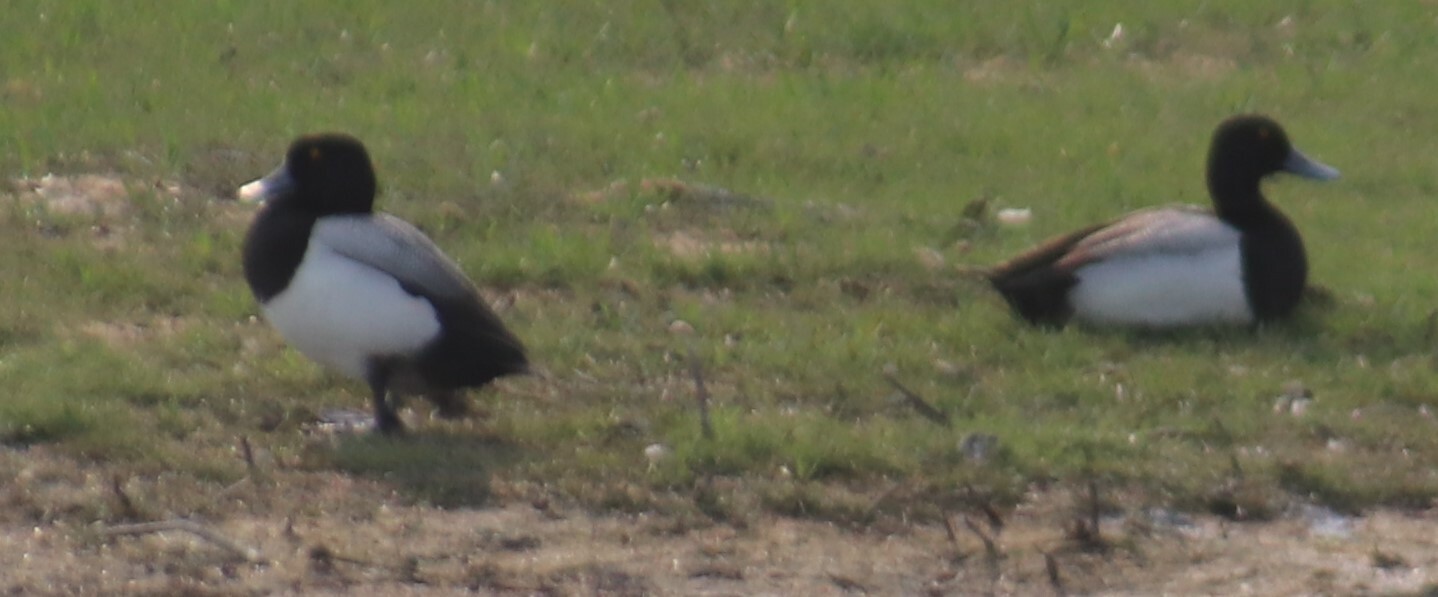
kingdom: Animalia
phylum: Chordata
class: Aves
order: Anseriformes
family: Anatidae
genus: Aythya
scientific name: Aythya affinis
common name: Lesser scaup
